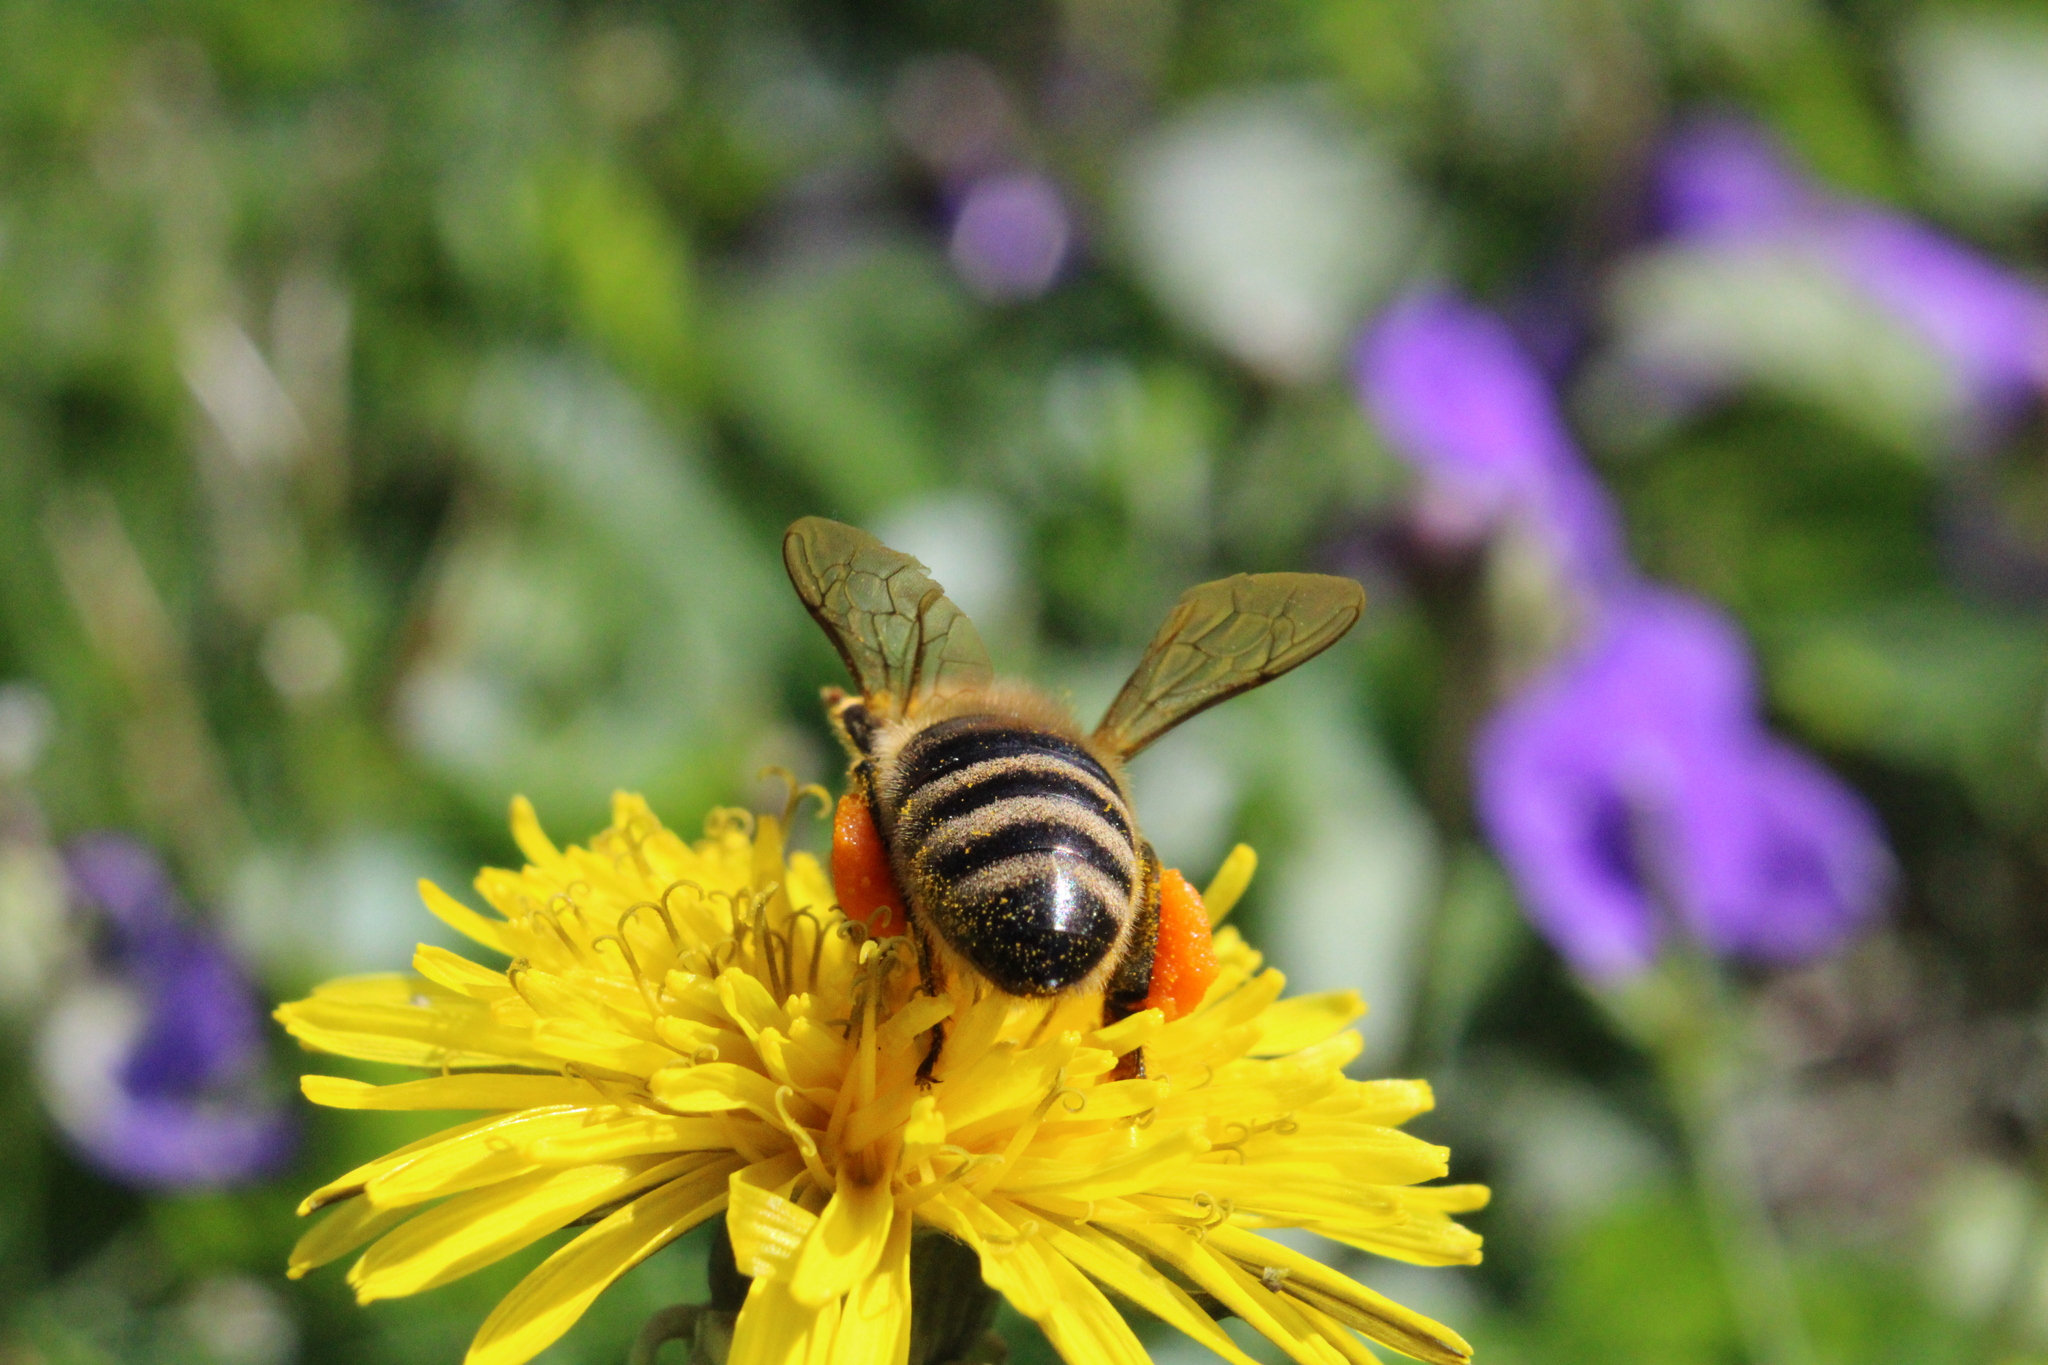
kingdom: Animalia
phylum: Arthropoda
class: Insecta
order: Hymenoptera
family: Apidae
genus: Apis
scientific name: Apis mellifera
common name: Honey bee
